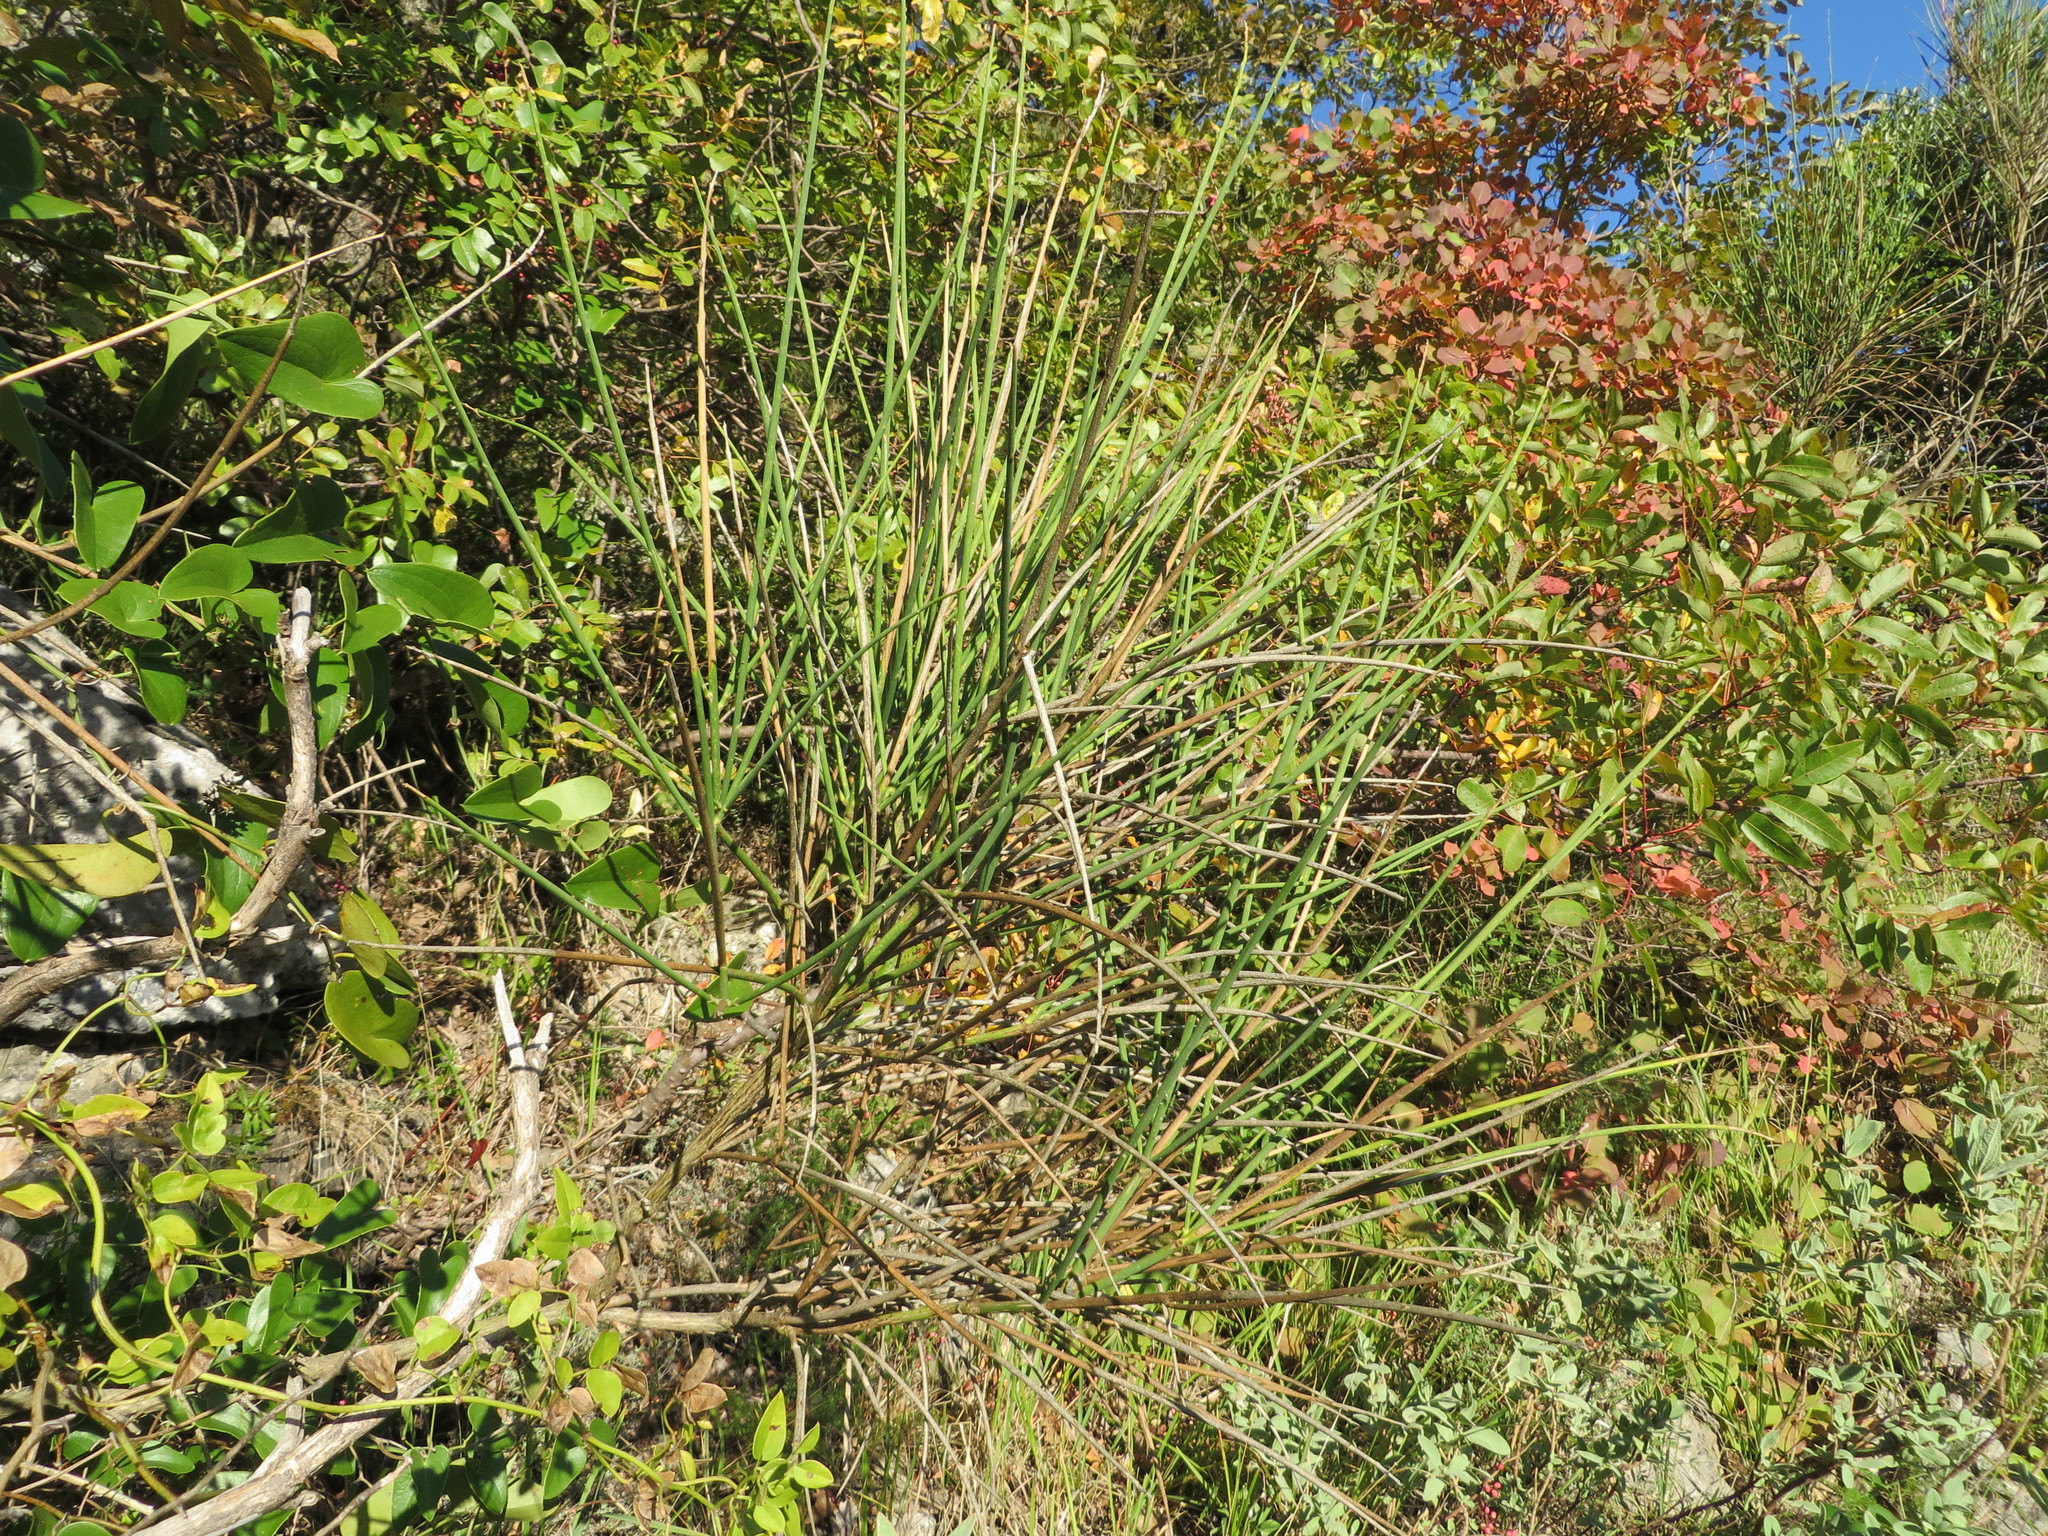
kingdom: Plantae
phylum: Tracheophyta
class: Magnoliopsida
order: Fabales
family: Fabaceae
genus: Spartium
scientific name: Spartium junceum
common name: Spanish broom
